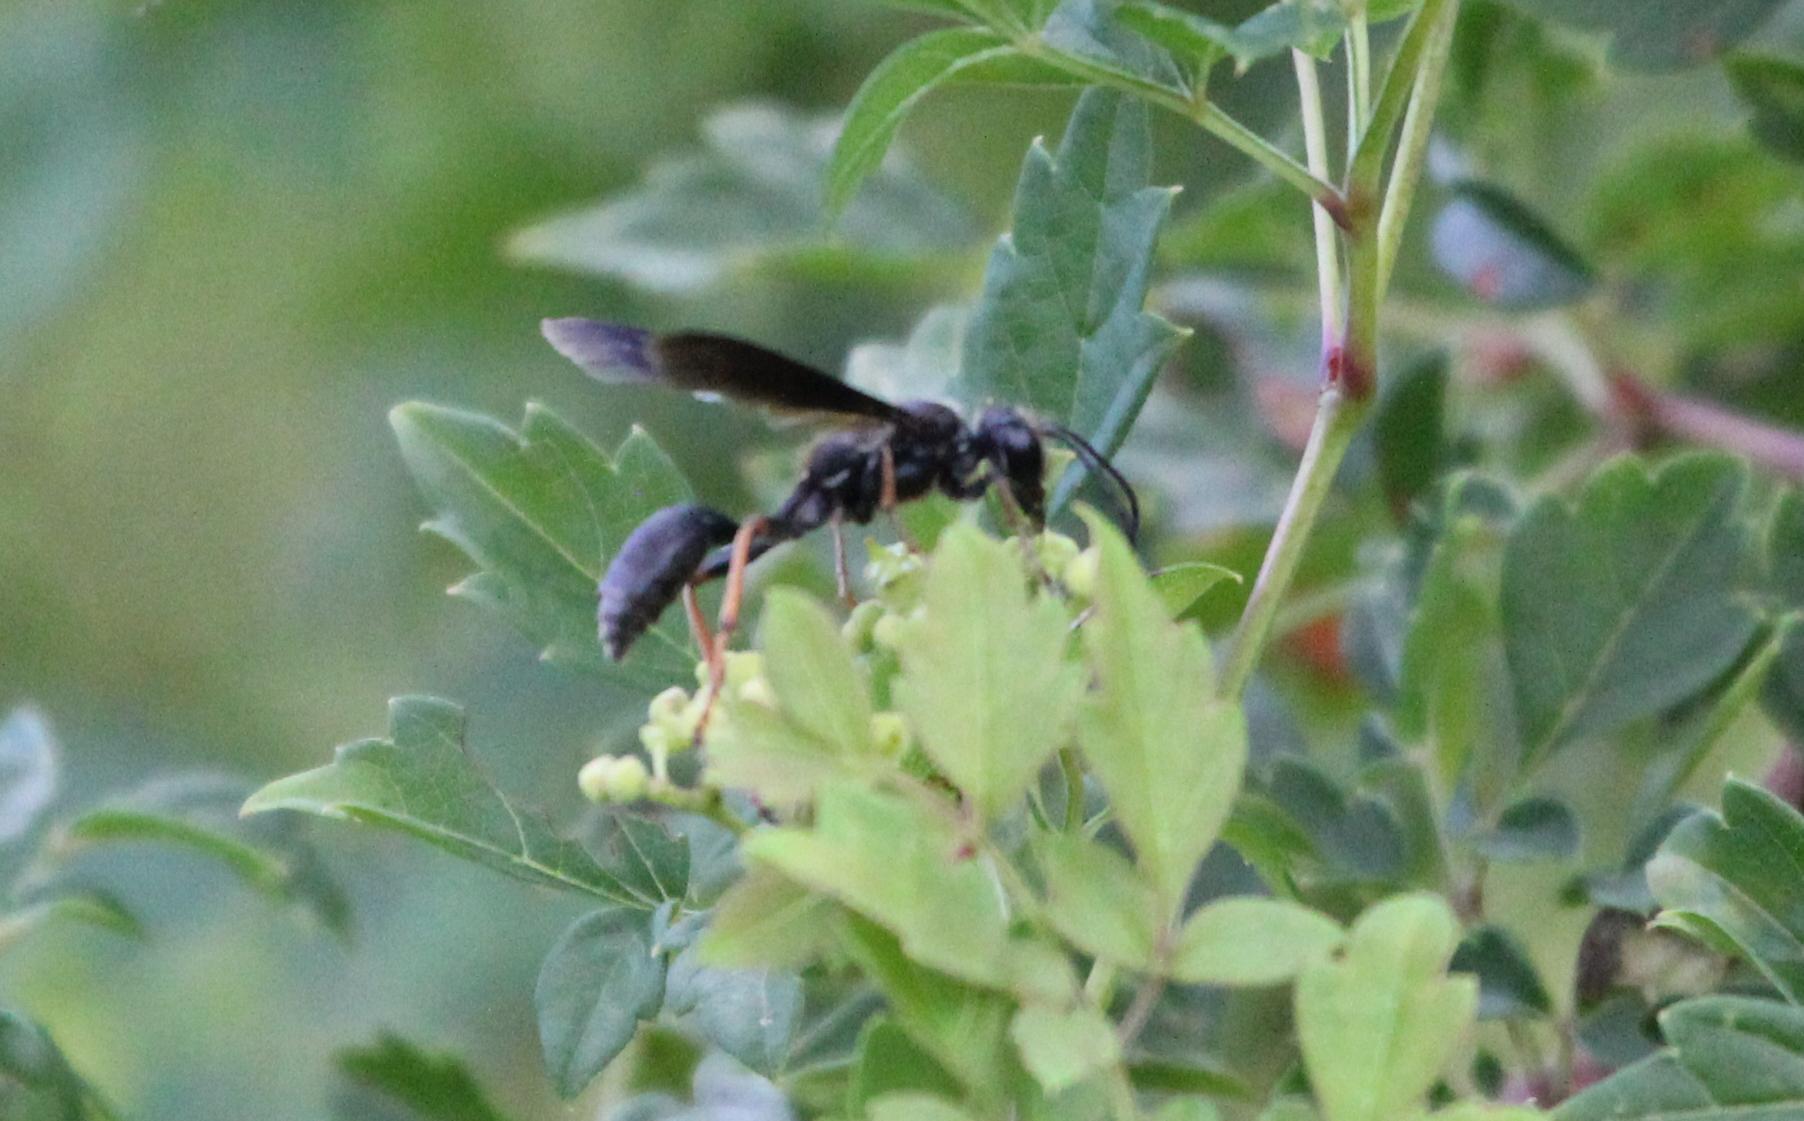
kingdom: Animalia
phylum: Arthropoda
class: Insecta
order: Hymenoptera
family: Sphecidae
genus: Isodontia
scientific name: Isodontia auripes
